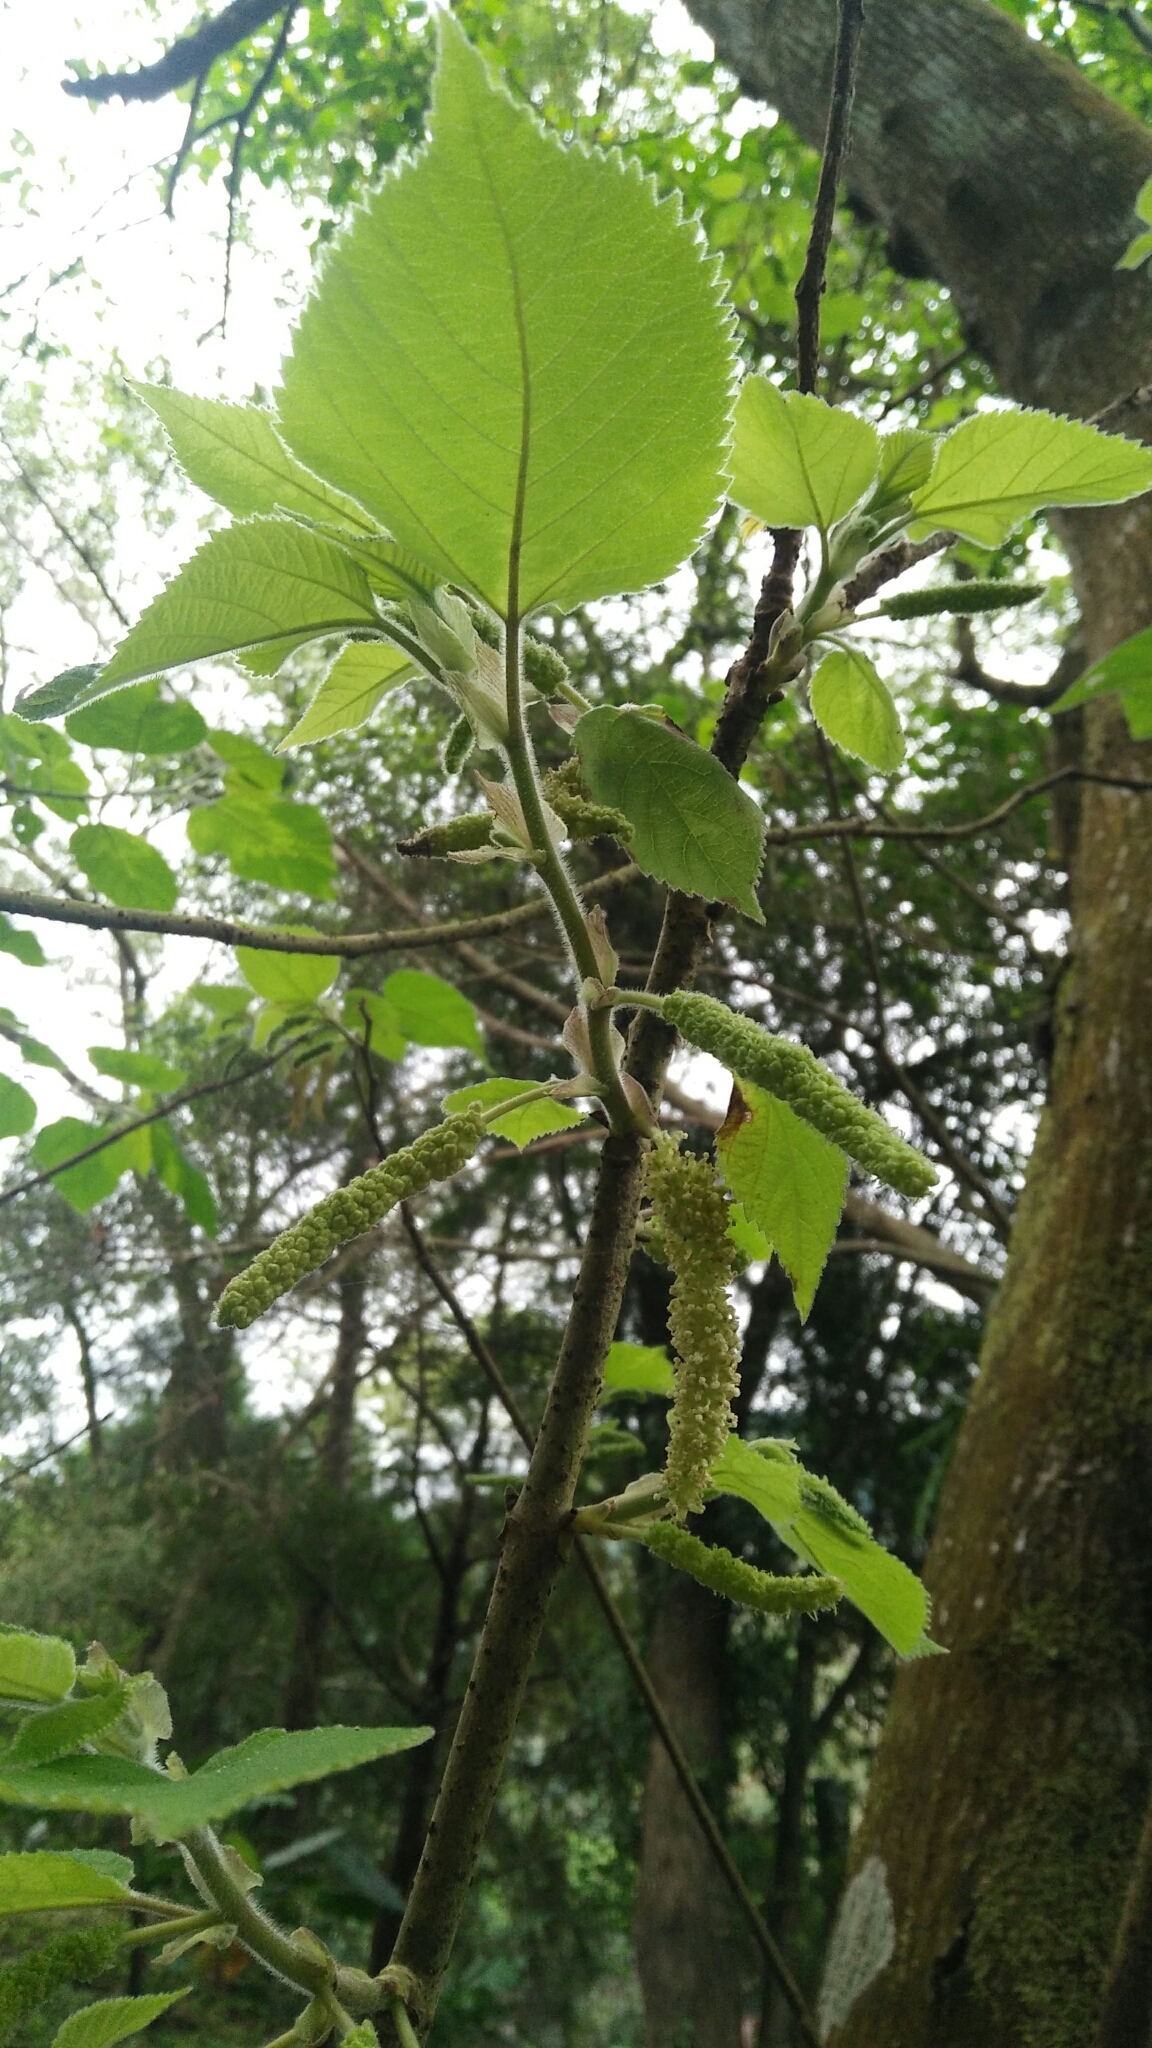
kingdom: Plantae
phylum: Tracheophyta
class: Magnoliopsida
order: Rosales
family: Moraceae
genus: Broussonetia
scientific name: Broussonetia papyrifera
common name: Paper mulberry
